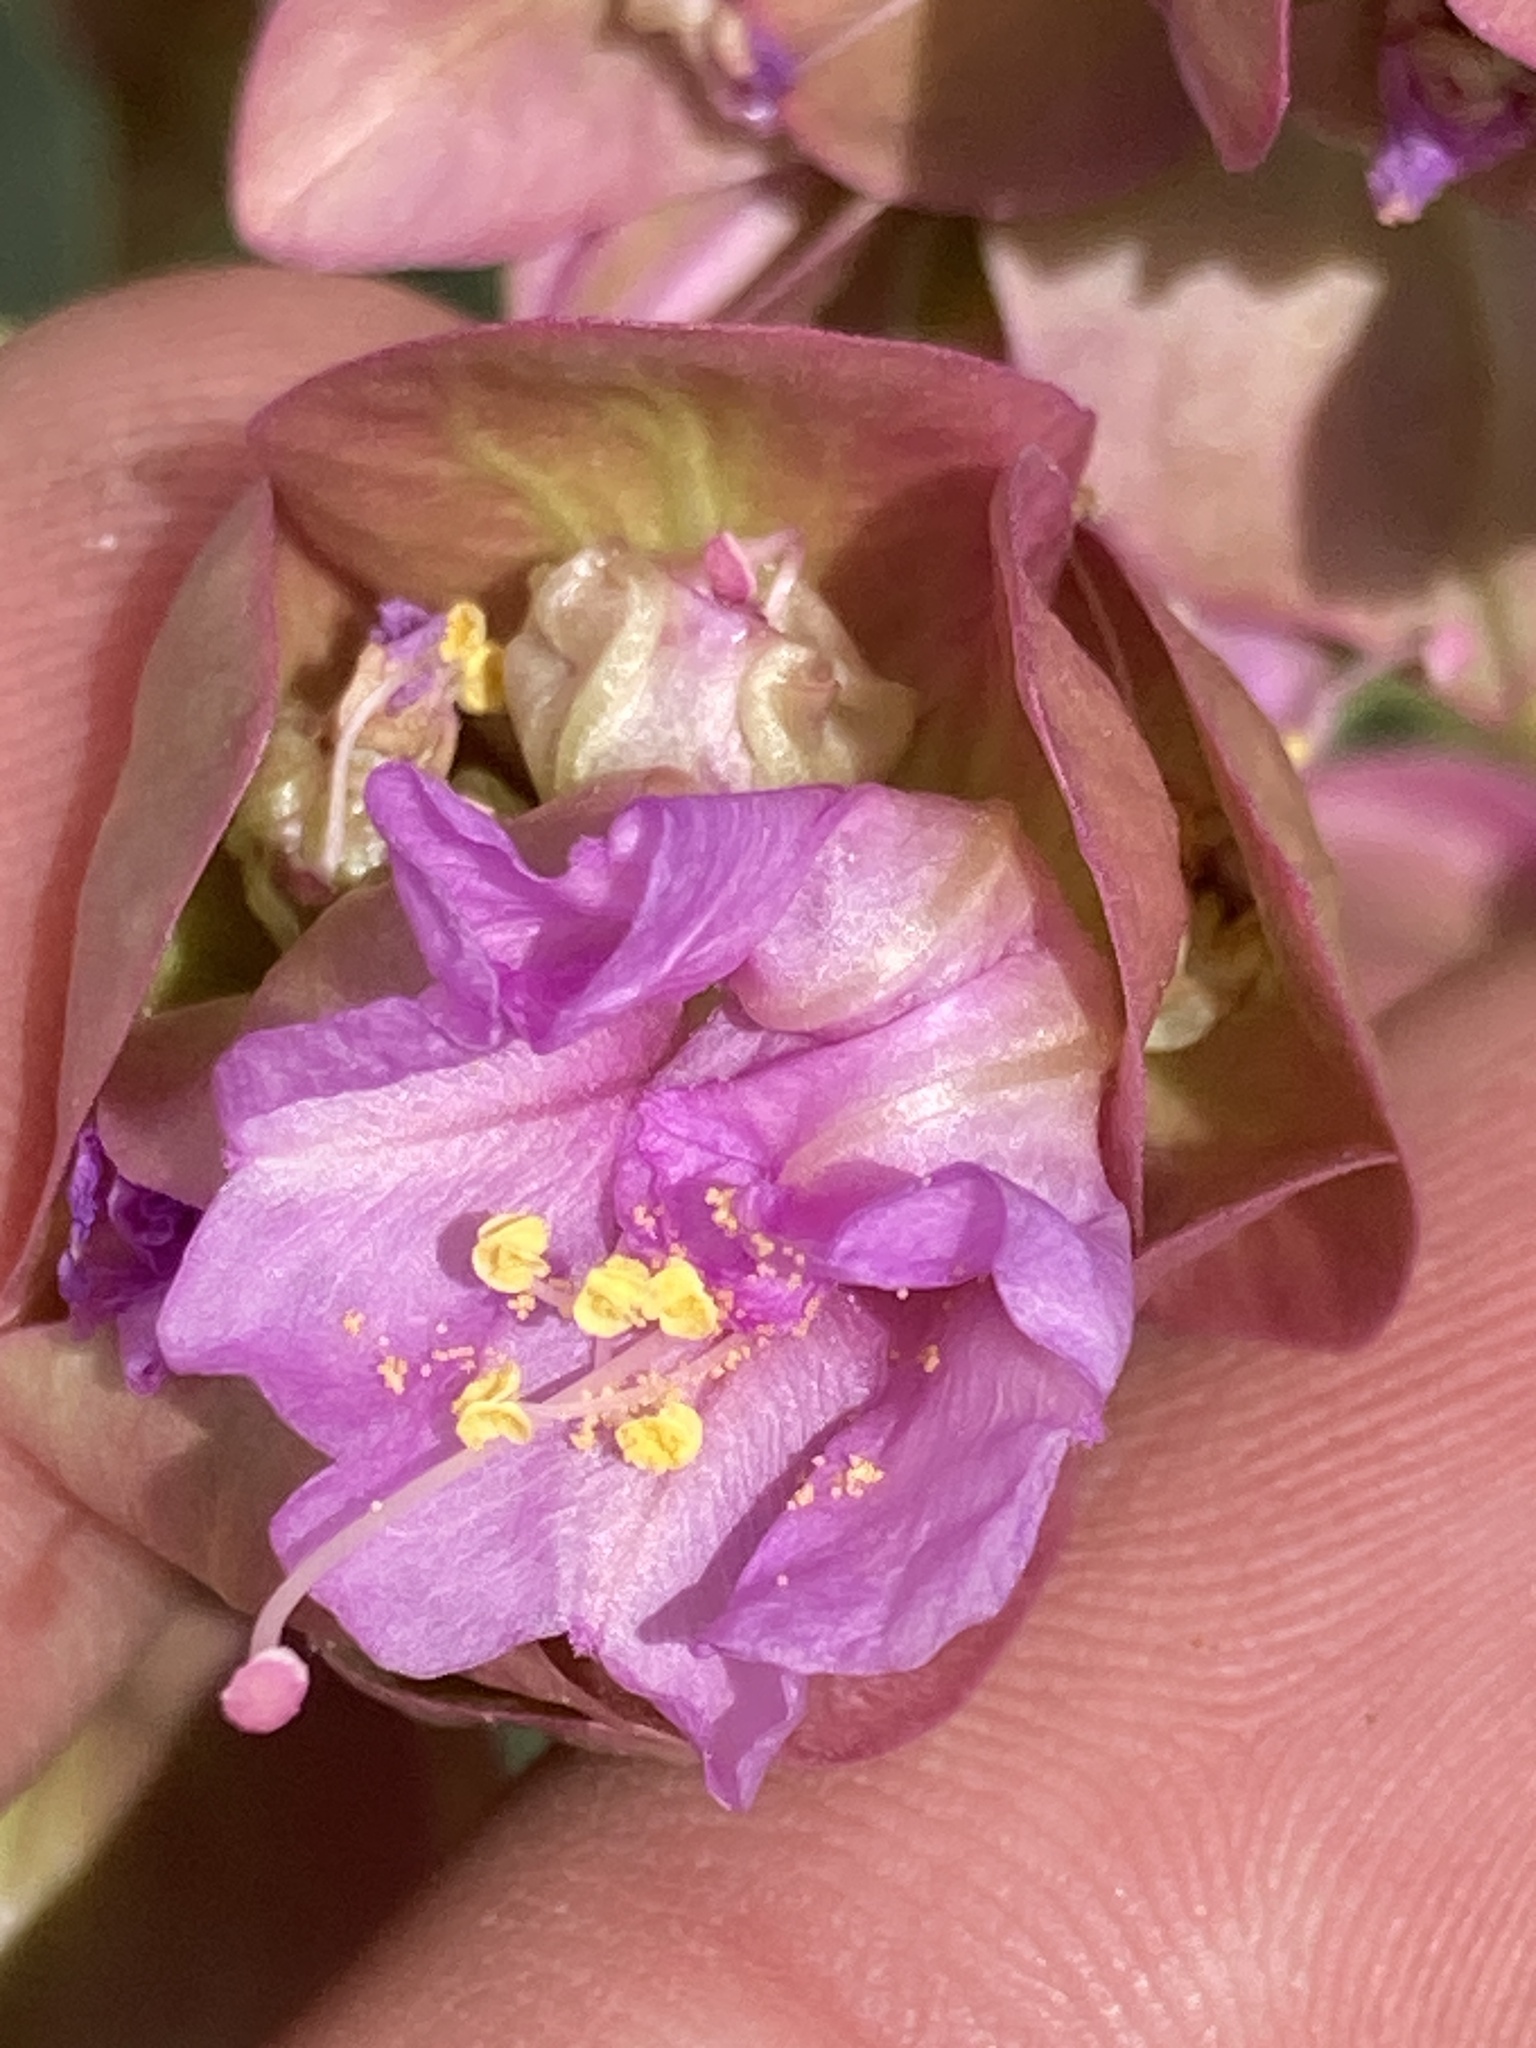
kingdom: Plantae
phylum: Tracheophyta
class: Magnoliopsida
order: Caryophyllales
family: Nyctaginaceae
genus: Mirabilis
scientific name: Mirabilis alipes
